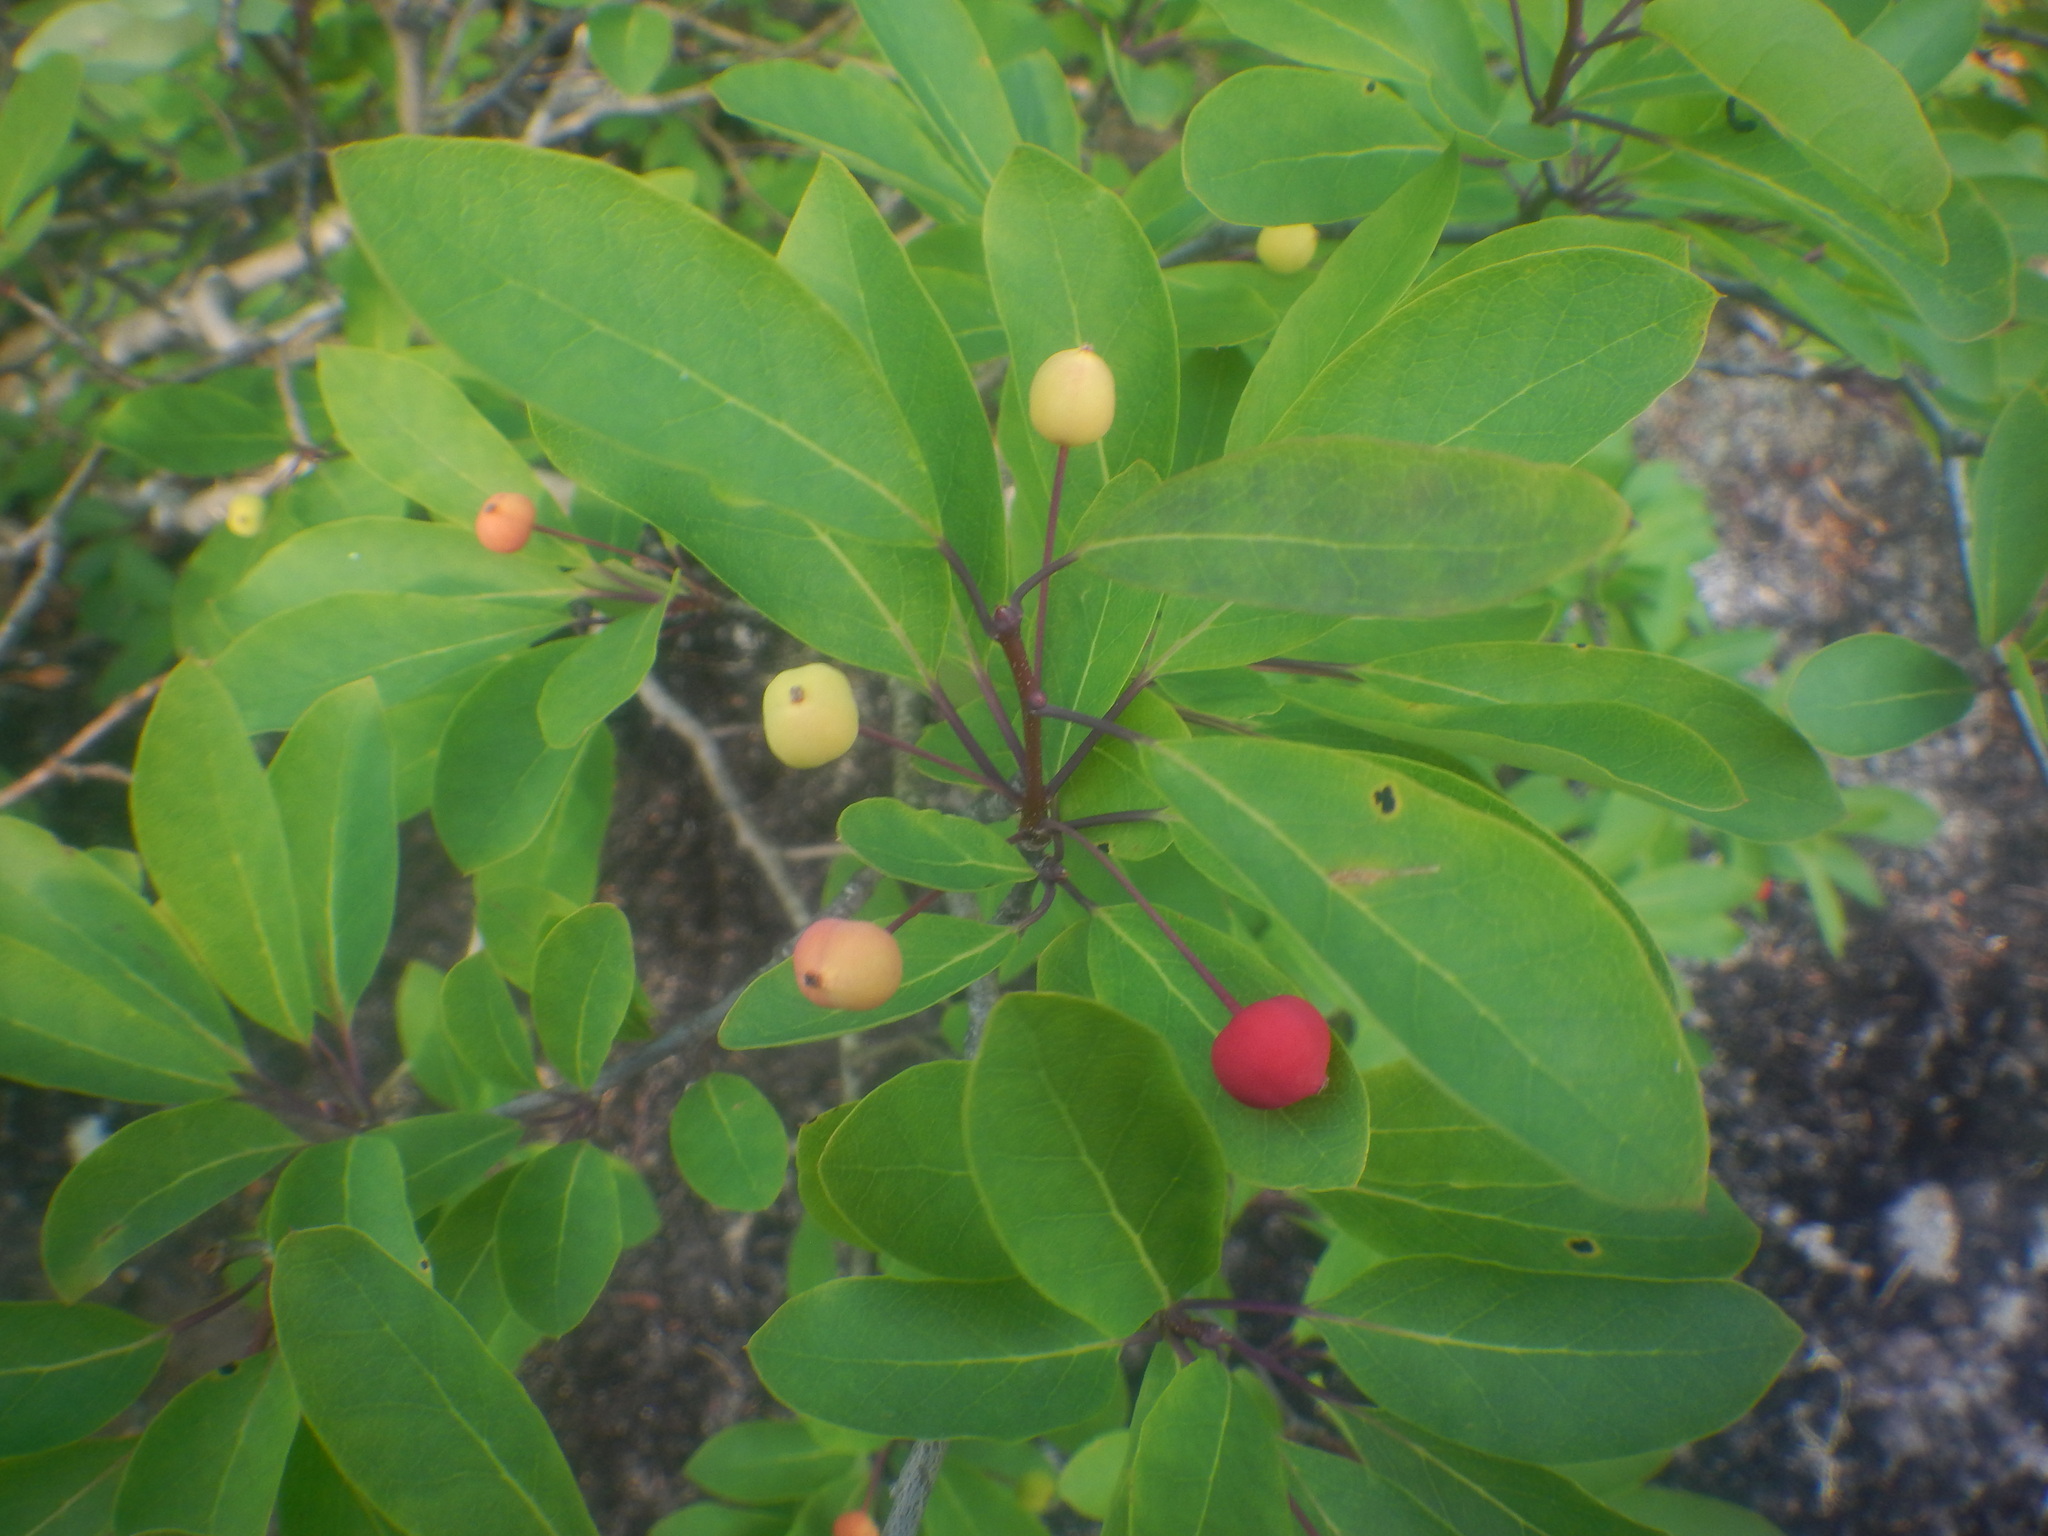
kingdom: Plantae
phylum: Tracheophyta
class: Magnoliopsida
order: Aquifoliales
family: Aquifoliaceae
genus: Ilex
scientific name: Ilex mucronata
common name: Catberry
